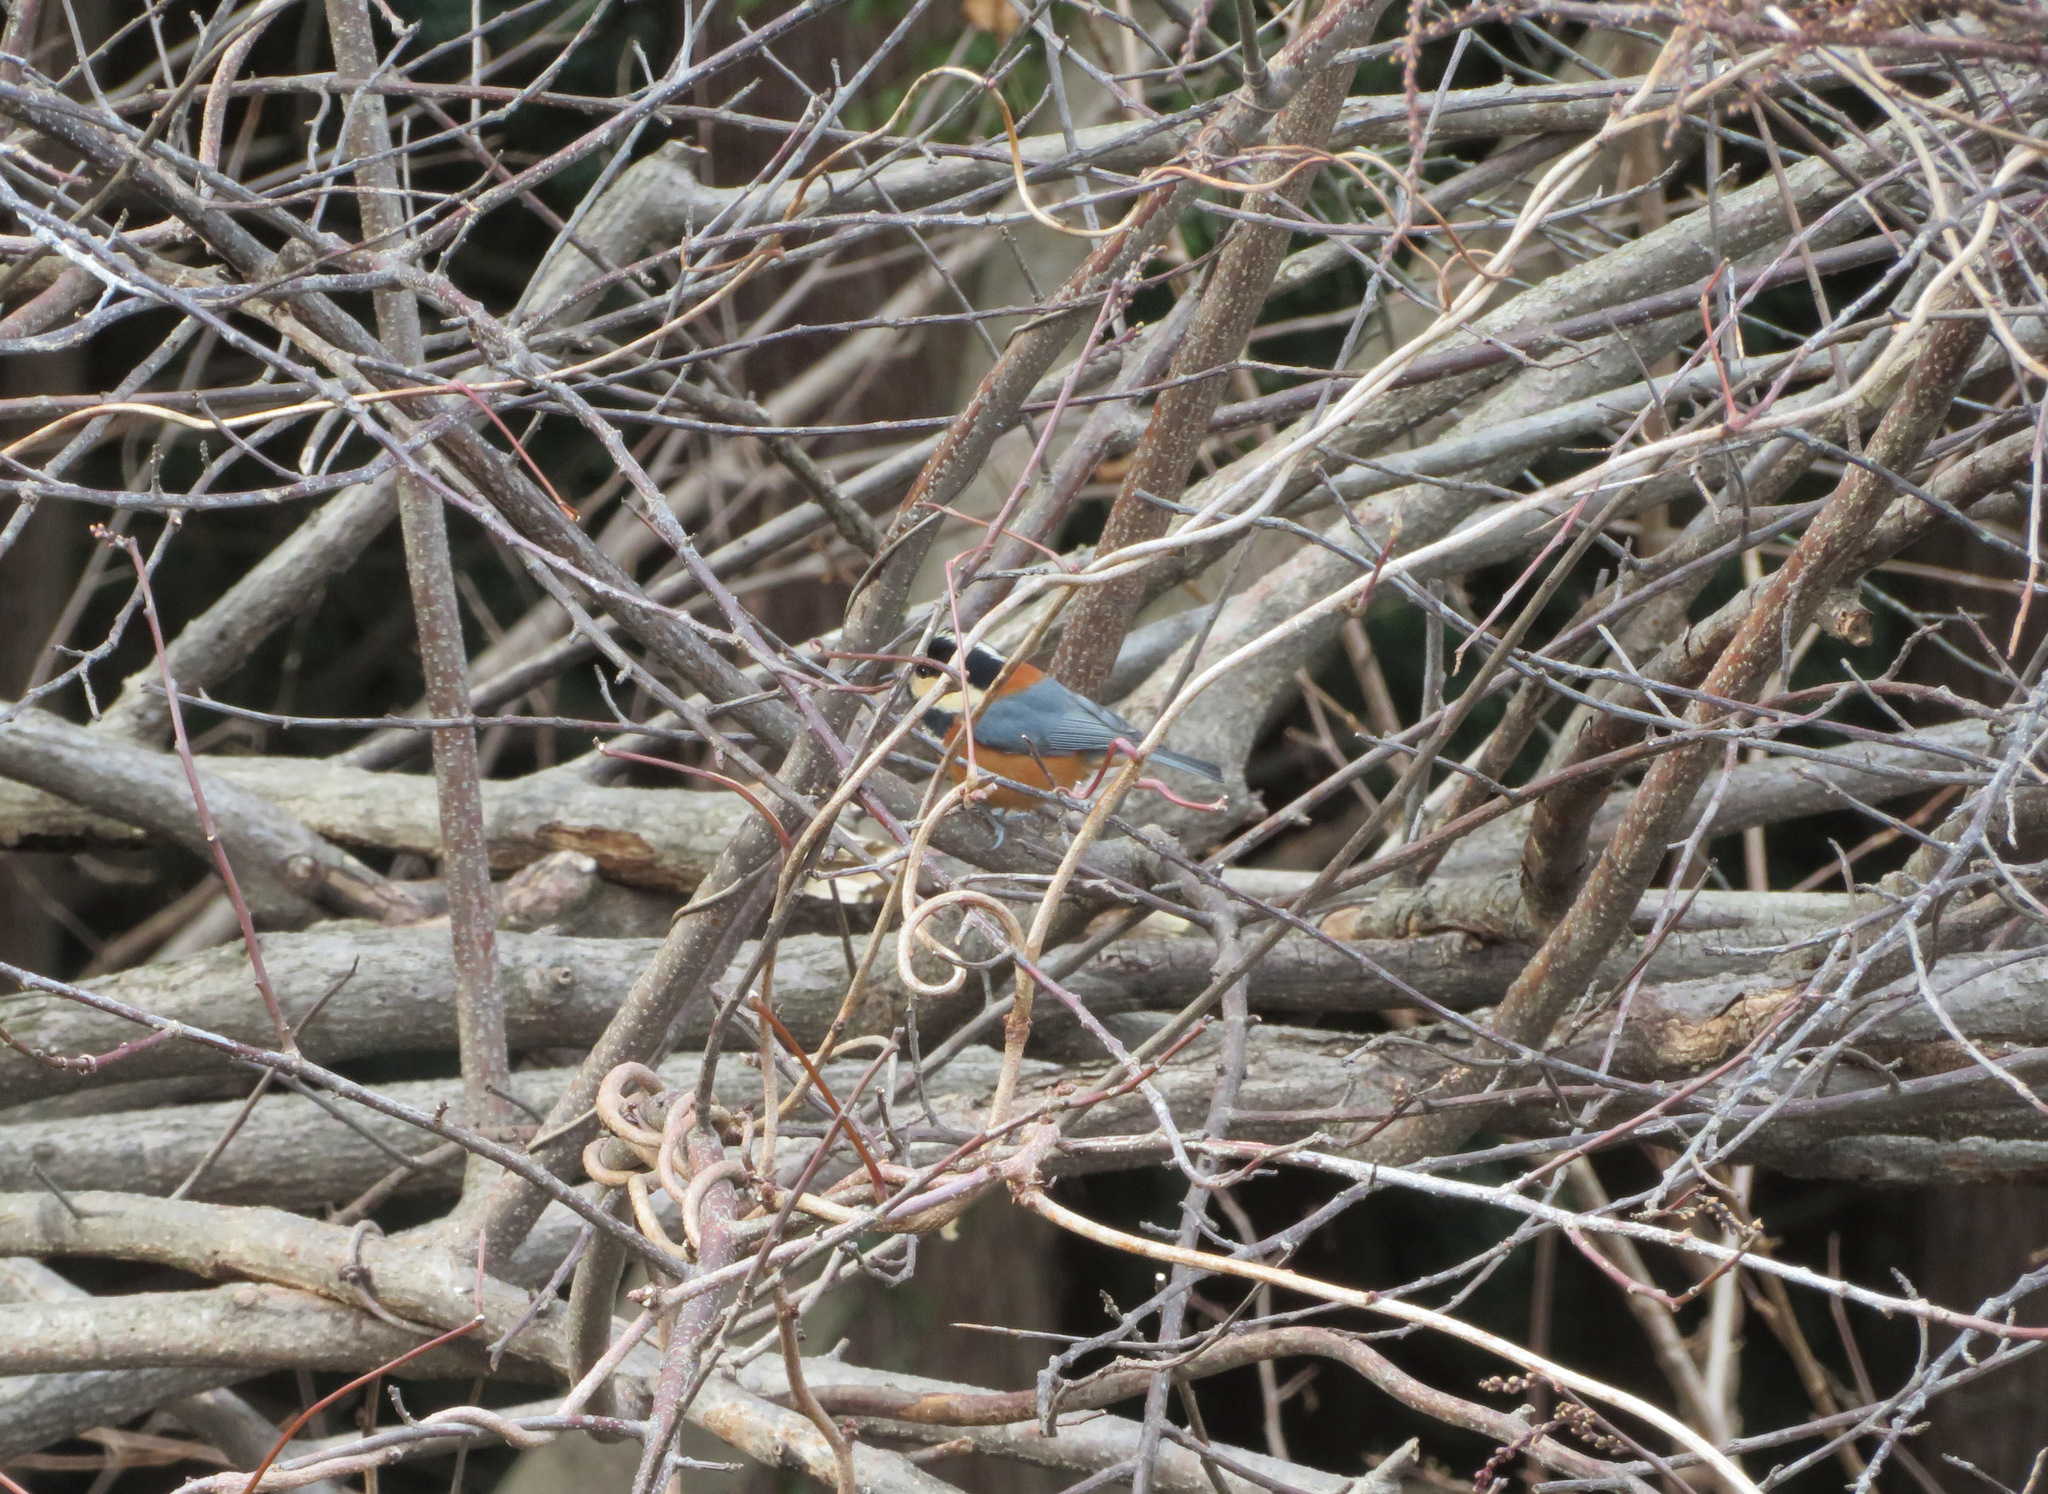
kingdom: Animalia
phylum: Chordata
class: Aves
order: Passeriformes
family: Paridae
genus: Poecile
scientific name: Poecile varius
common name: Varied tit
